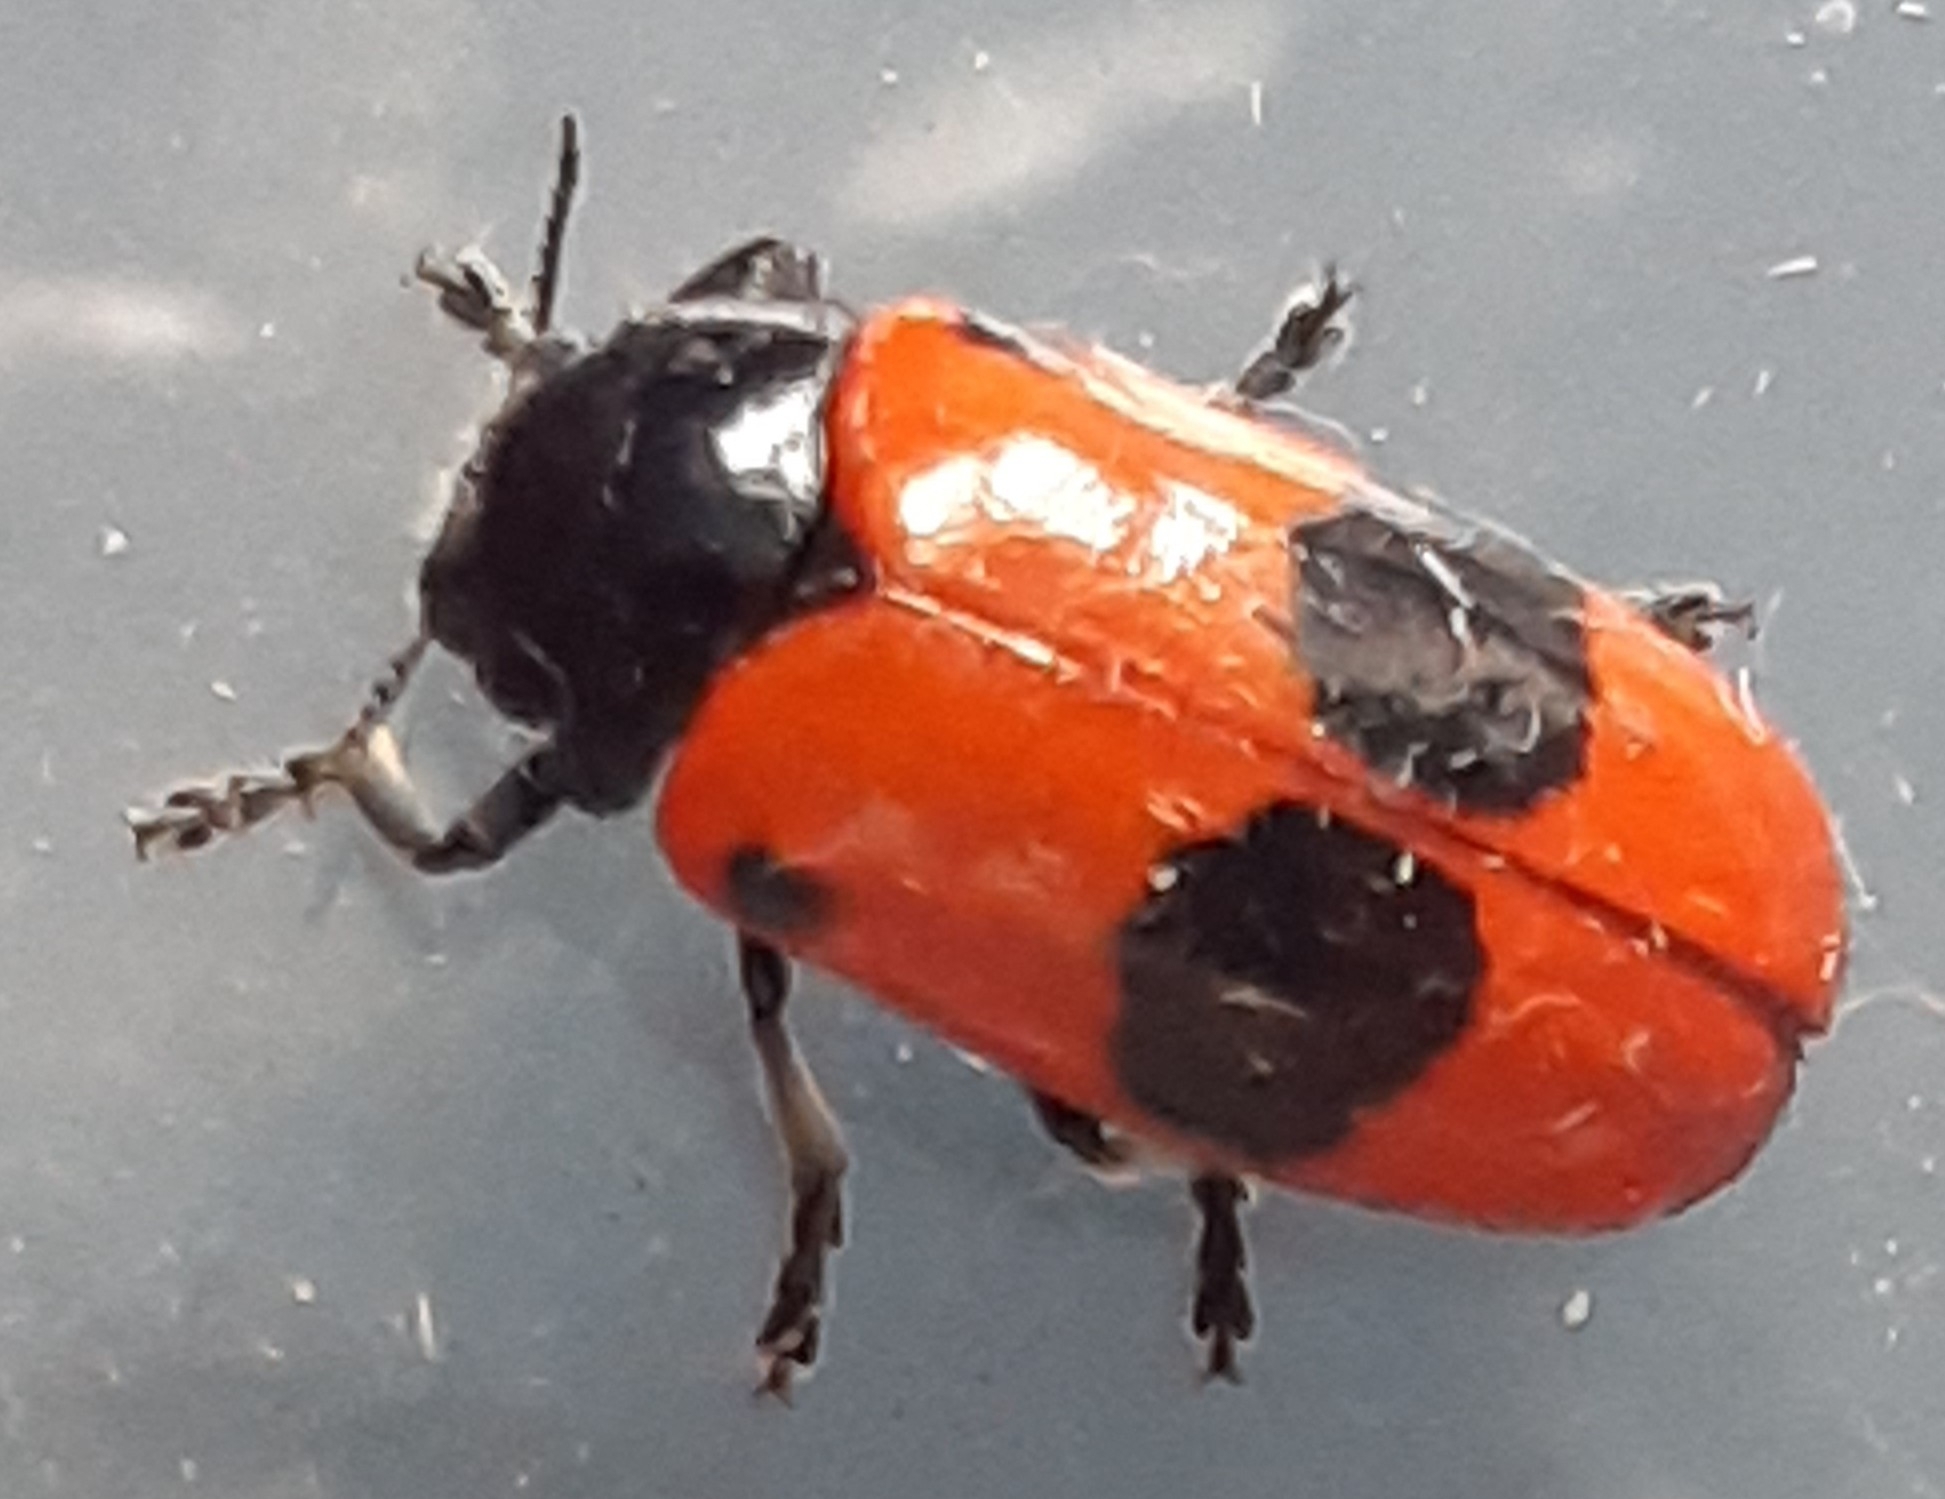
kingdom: Animalia
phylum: Arthropoda
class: Insecta
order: Coleoptera
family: Chrysomelidae
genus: Clytra
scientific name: Clytra laeviuscula
